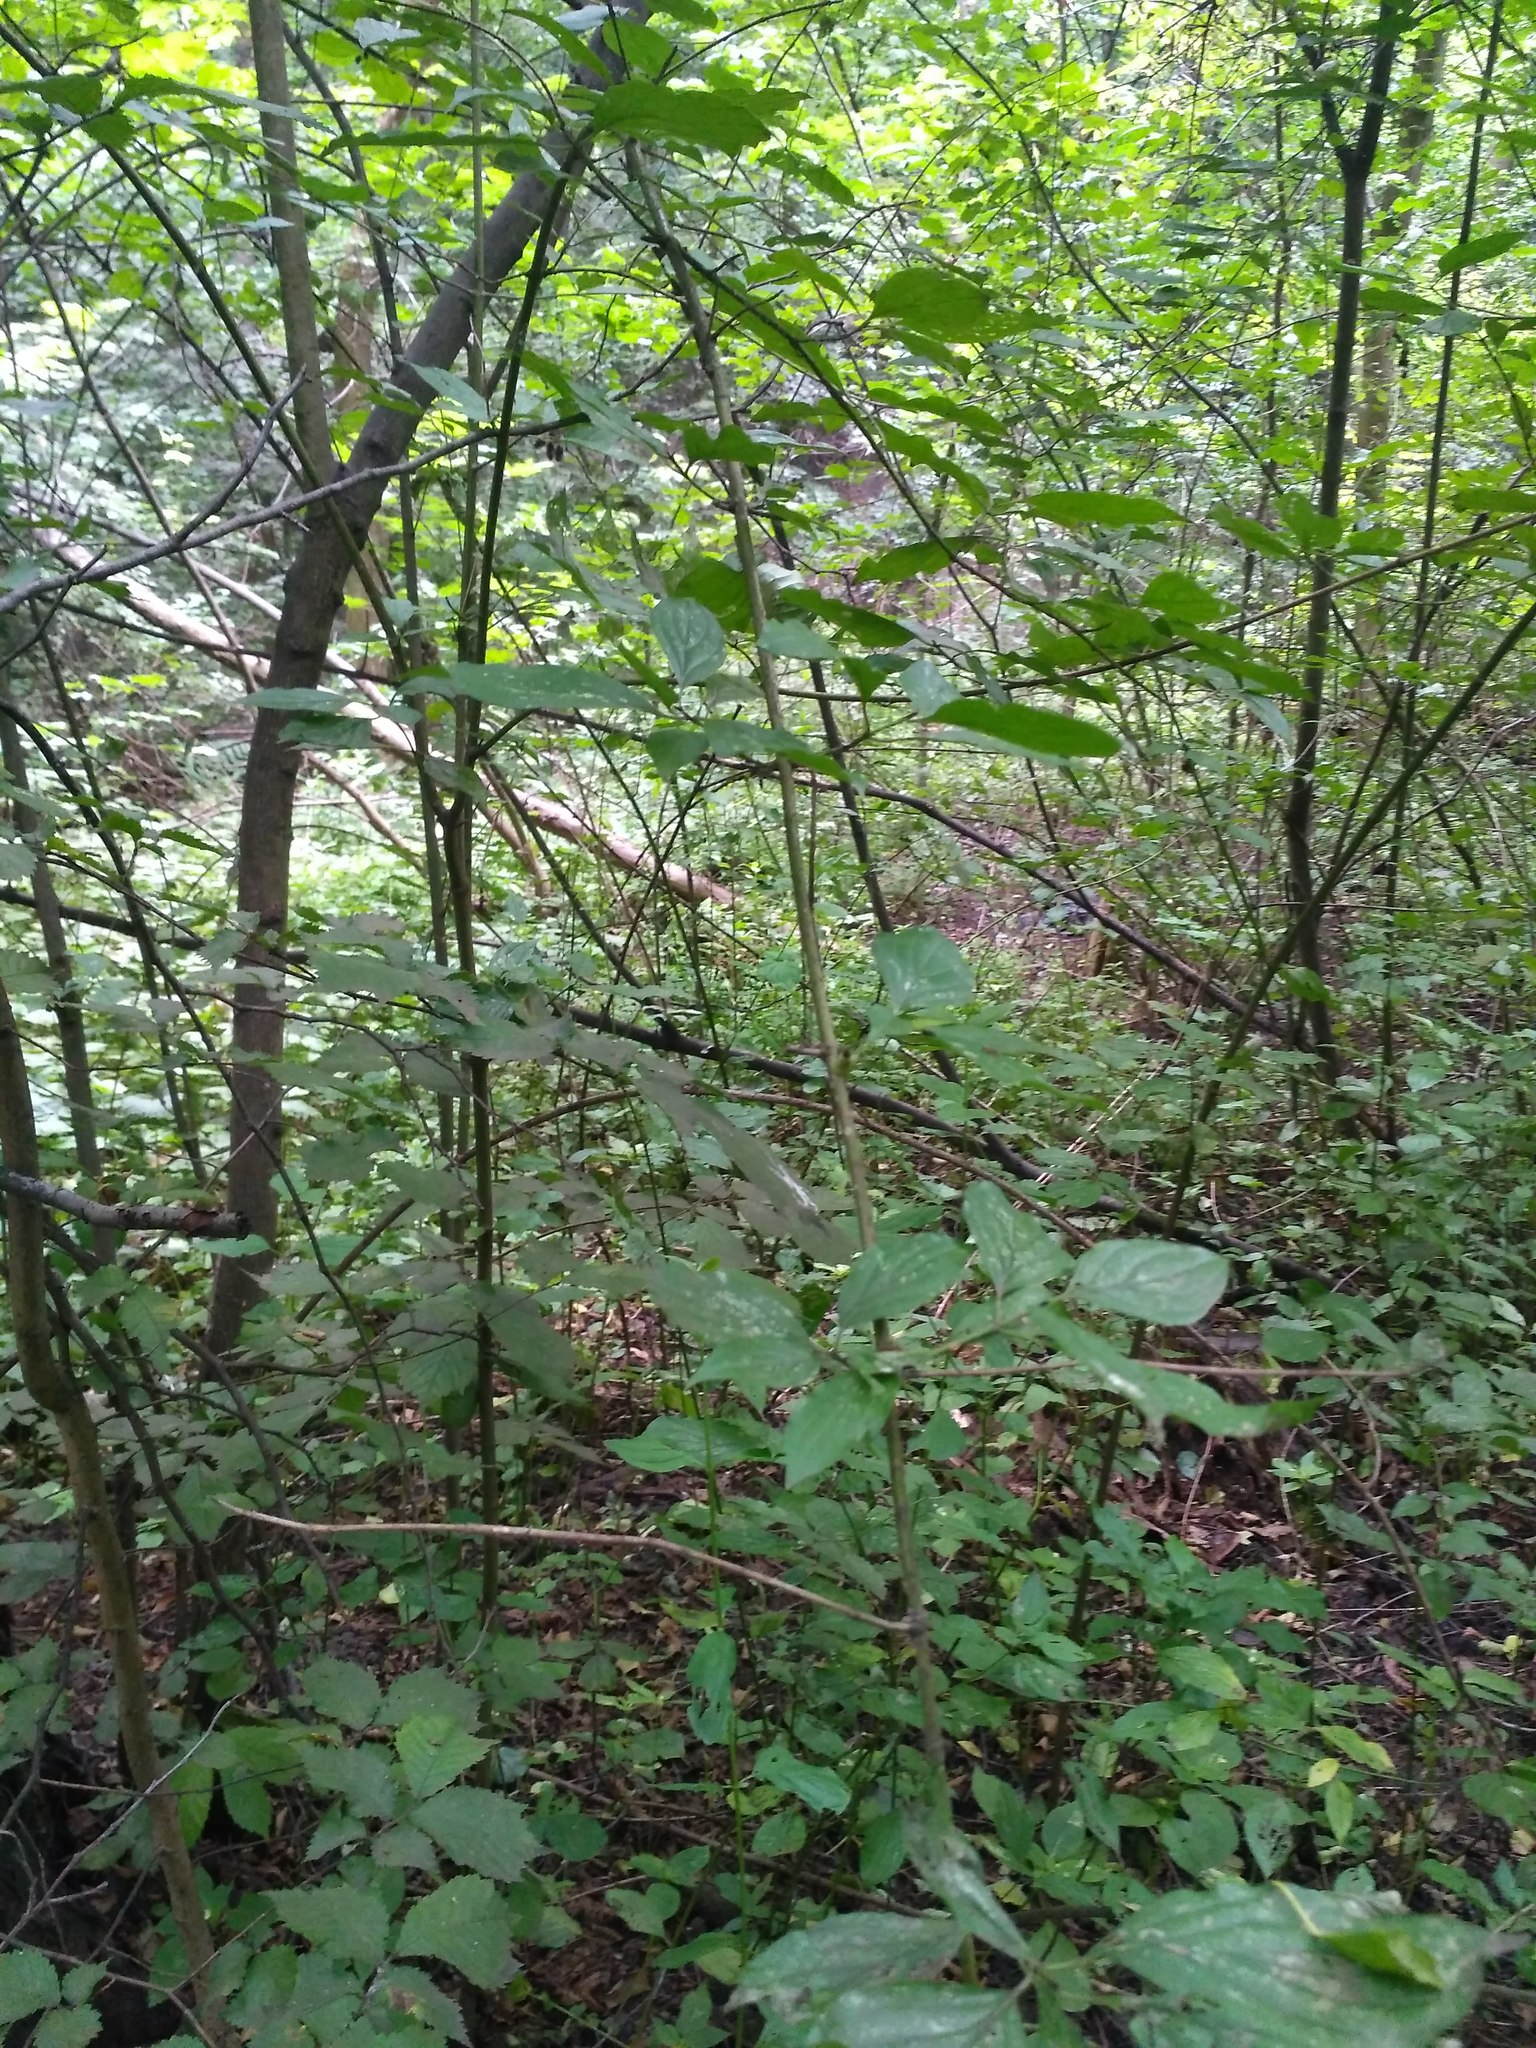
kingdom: Plantae
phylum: Tracheophyta
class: Magnoliopsida
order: Cornales
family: Cornaceae
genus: Cornus
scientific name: Cornus sanguinea
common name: Dogwood
